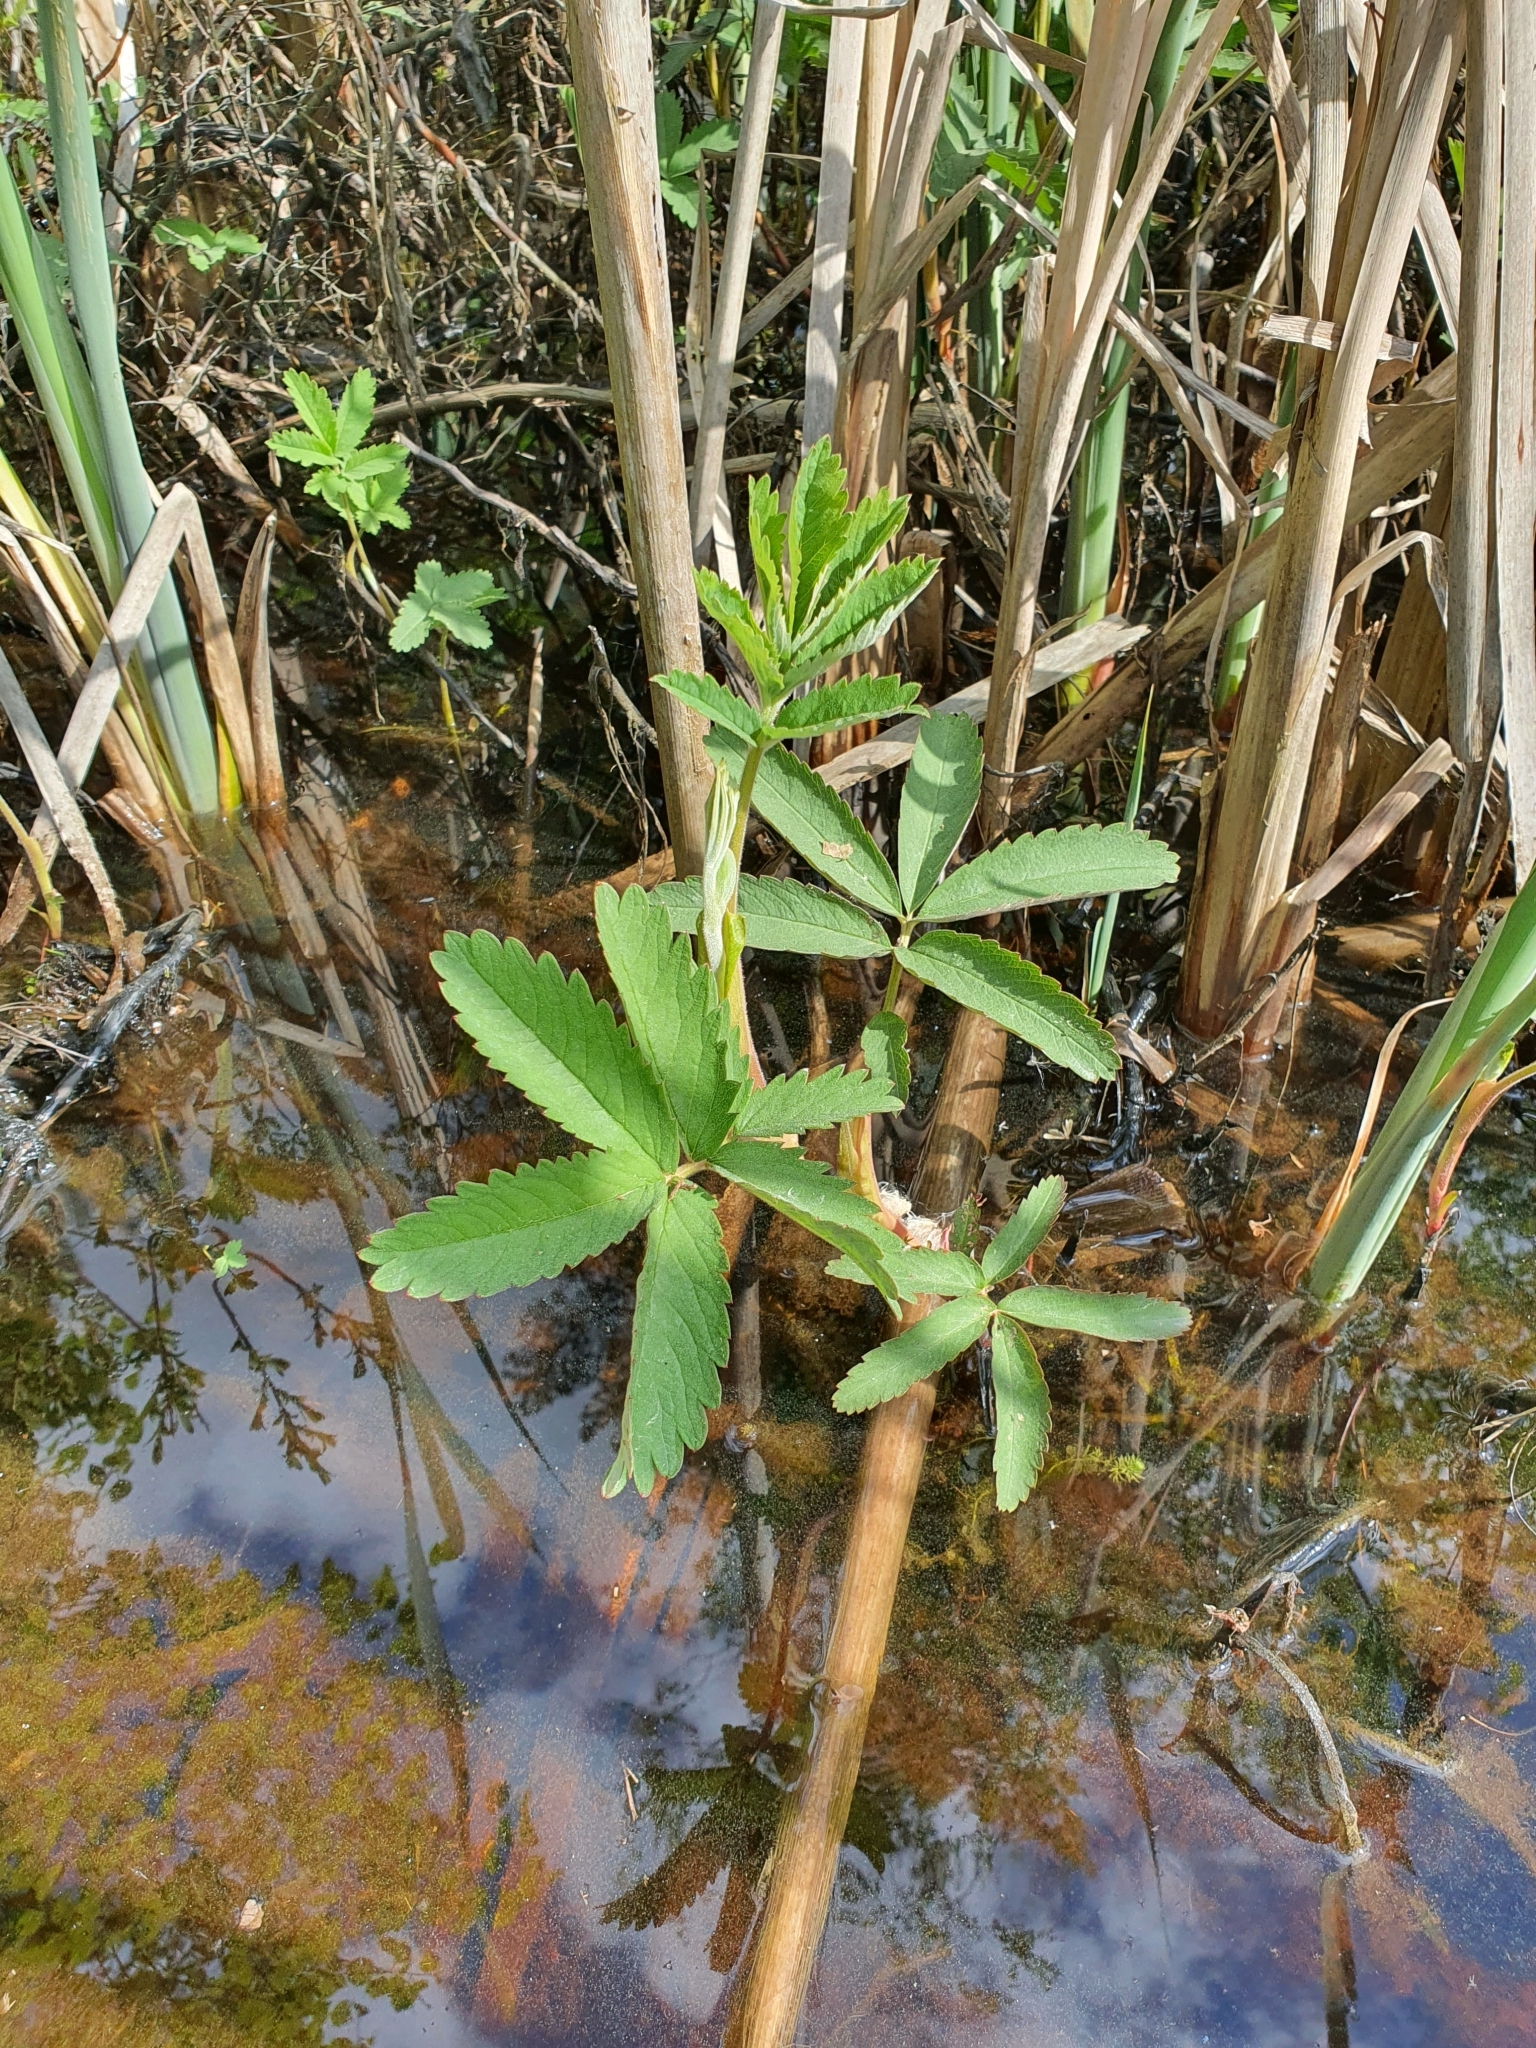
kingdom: Plantae
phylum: Tracheophyta
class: Magnoliopsida
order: Rosales
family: Rosaceae
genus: Comarum
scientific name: Comarum palustre
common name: Marsh cinquefoil
